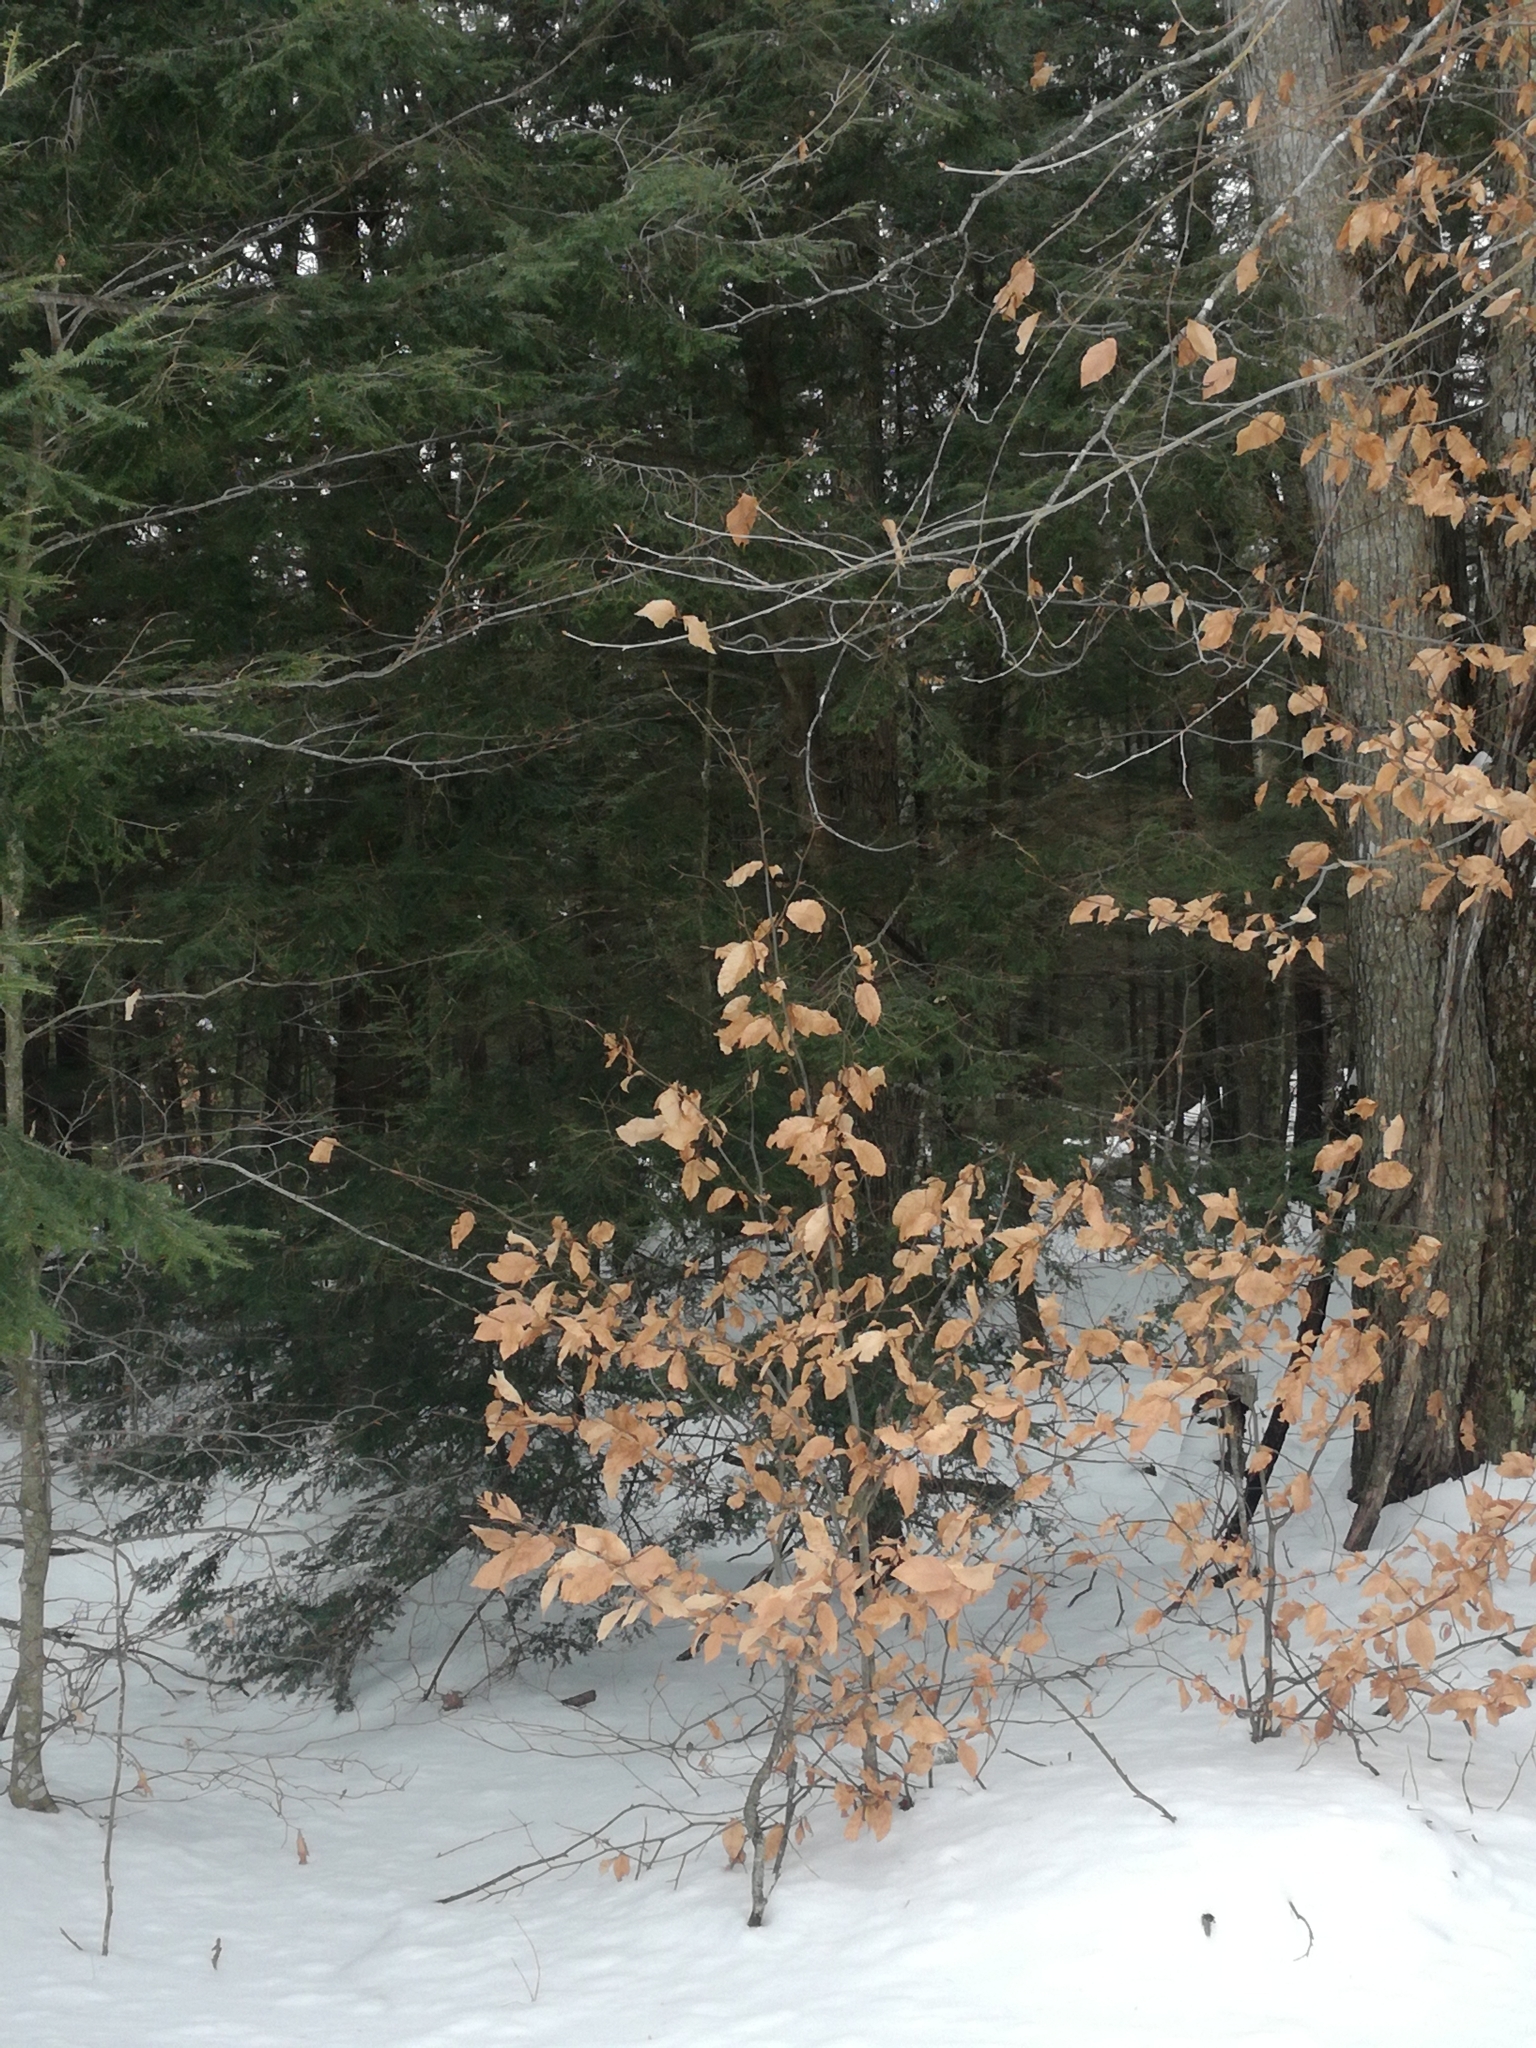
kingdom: Plantae
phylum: Tracheophyta
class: Magnoliopsida
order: Fagales
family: Fagaceae
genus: Fagus
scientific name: Fagus grandifolia
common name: American beech
